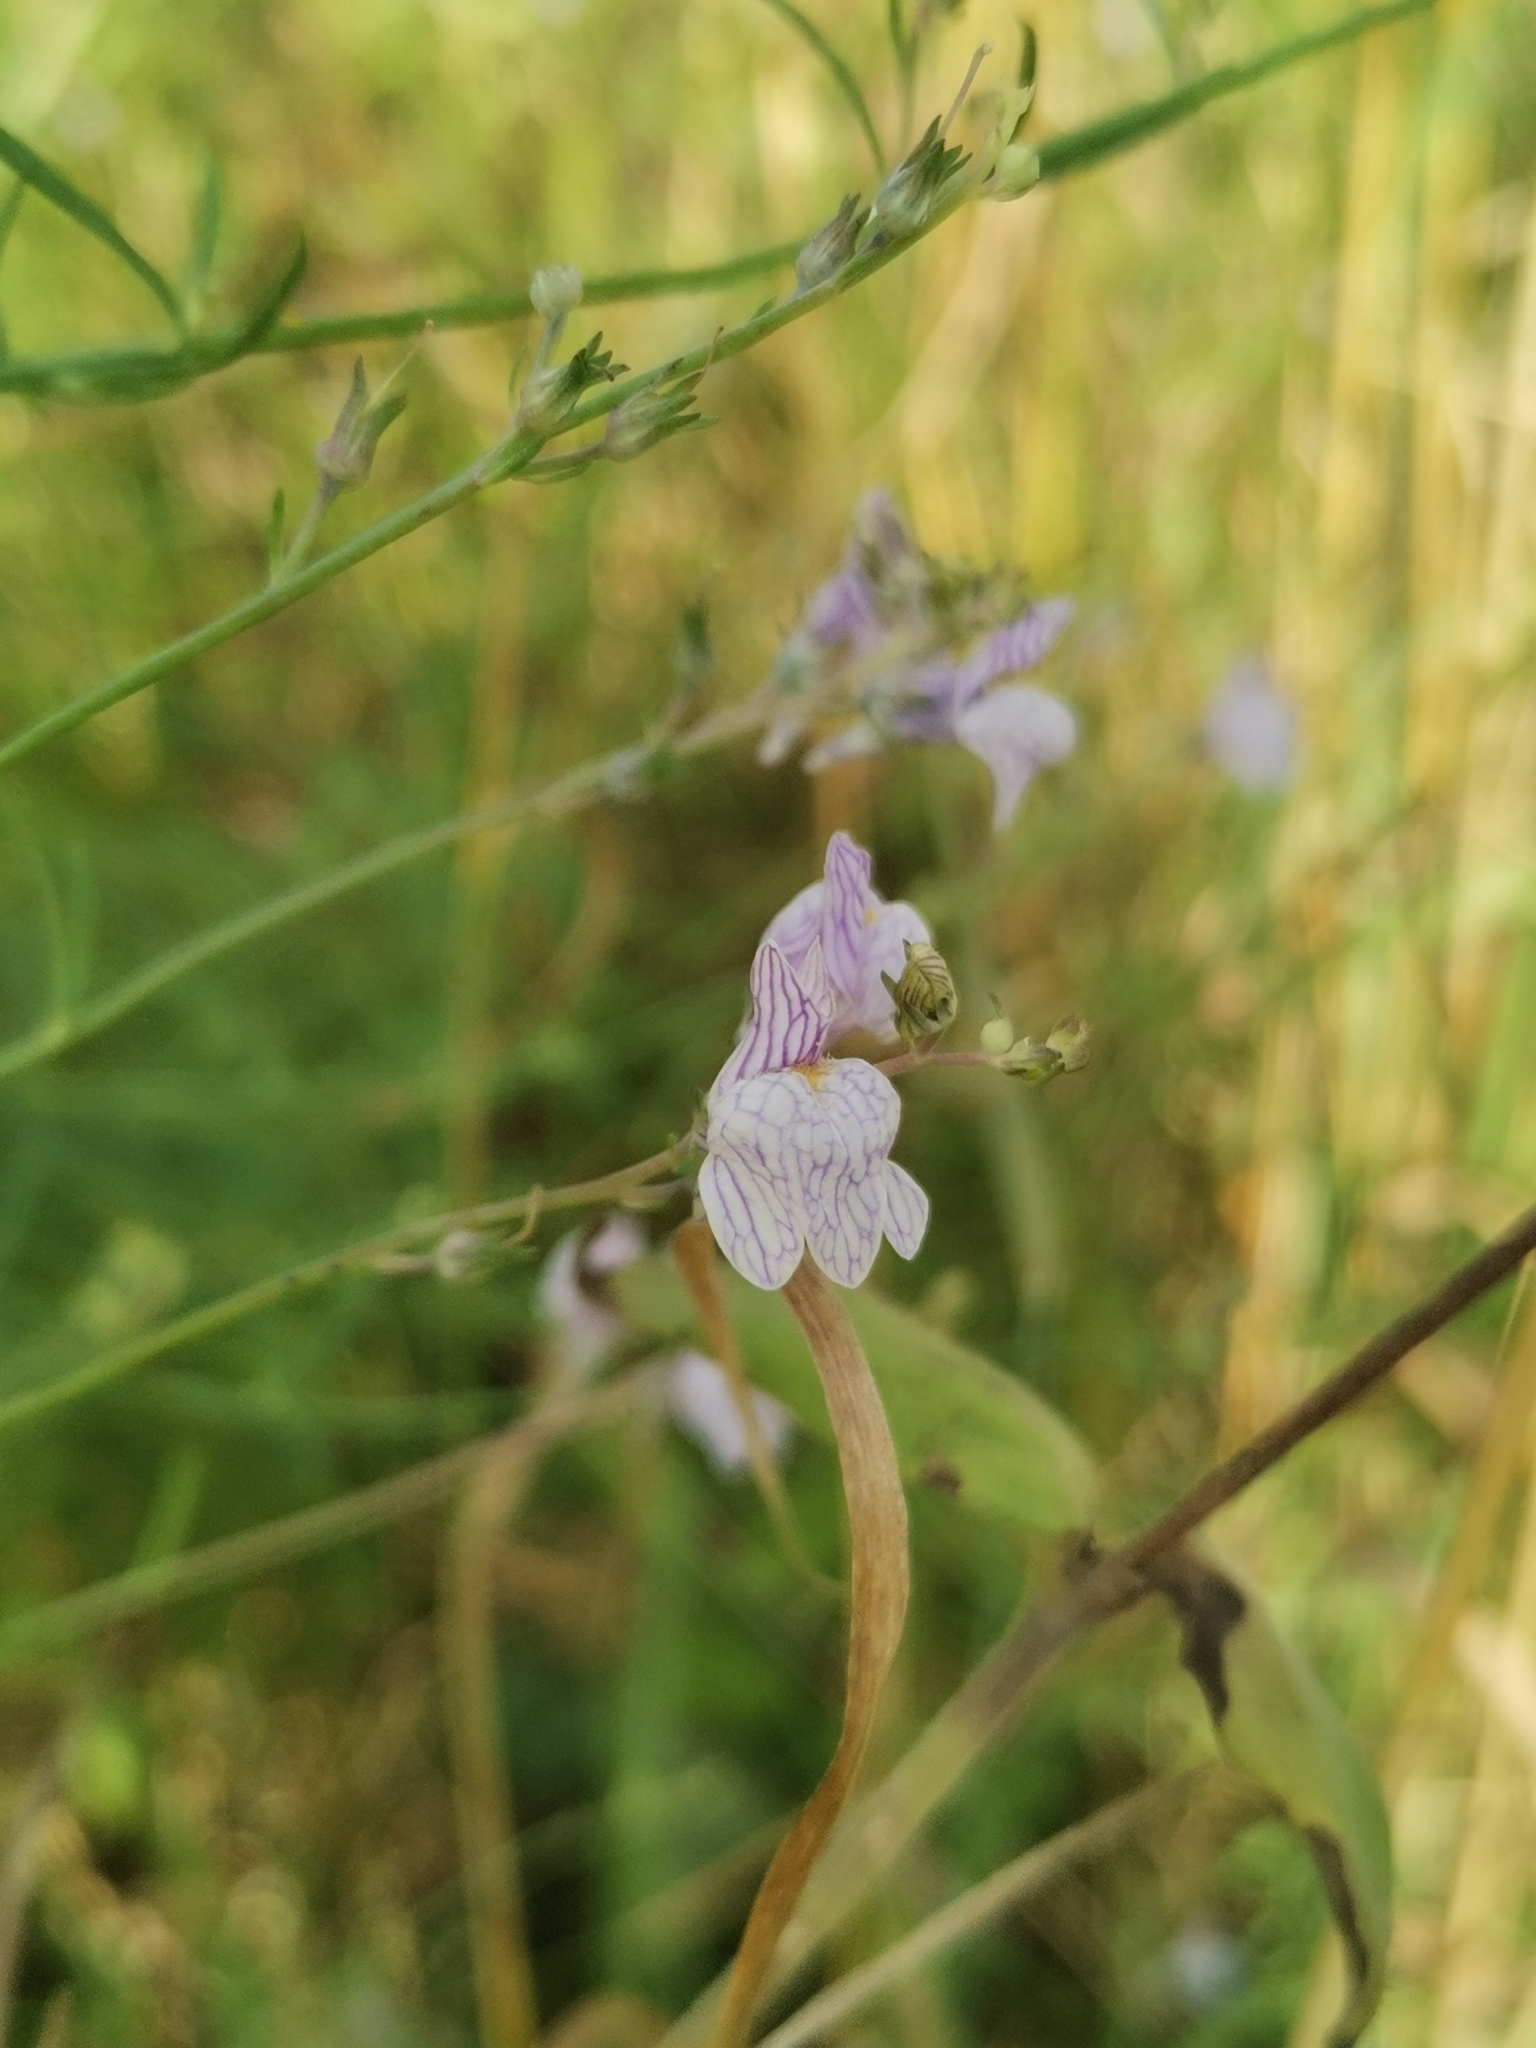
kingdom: Plantae
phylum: Tracheophyta
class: Magnoliopsida
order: Lamiales
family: Plantaginaceae
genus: Linaria
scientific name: Linaria repens
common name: Pale toadflax
